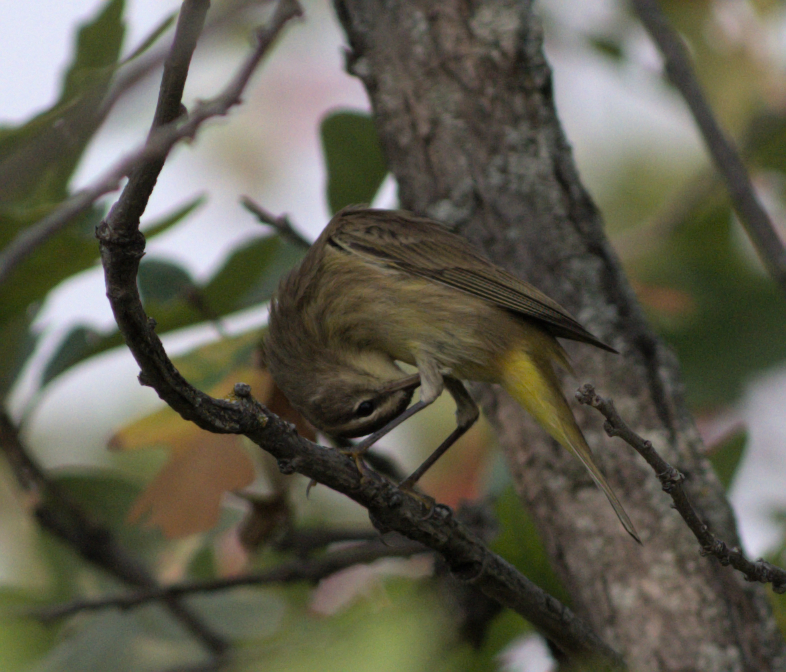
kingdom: Animalia
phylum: Chordata
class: Aves
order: Passeriformes
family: Parulidae
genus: Setophaga
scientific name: Setophaga palmarum
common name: Palm warbler
